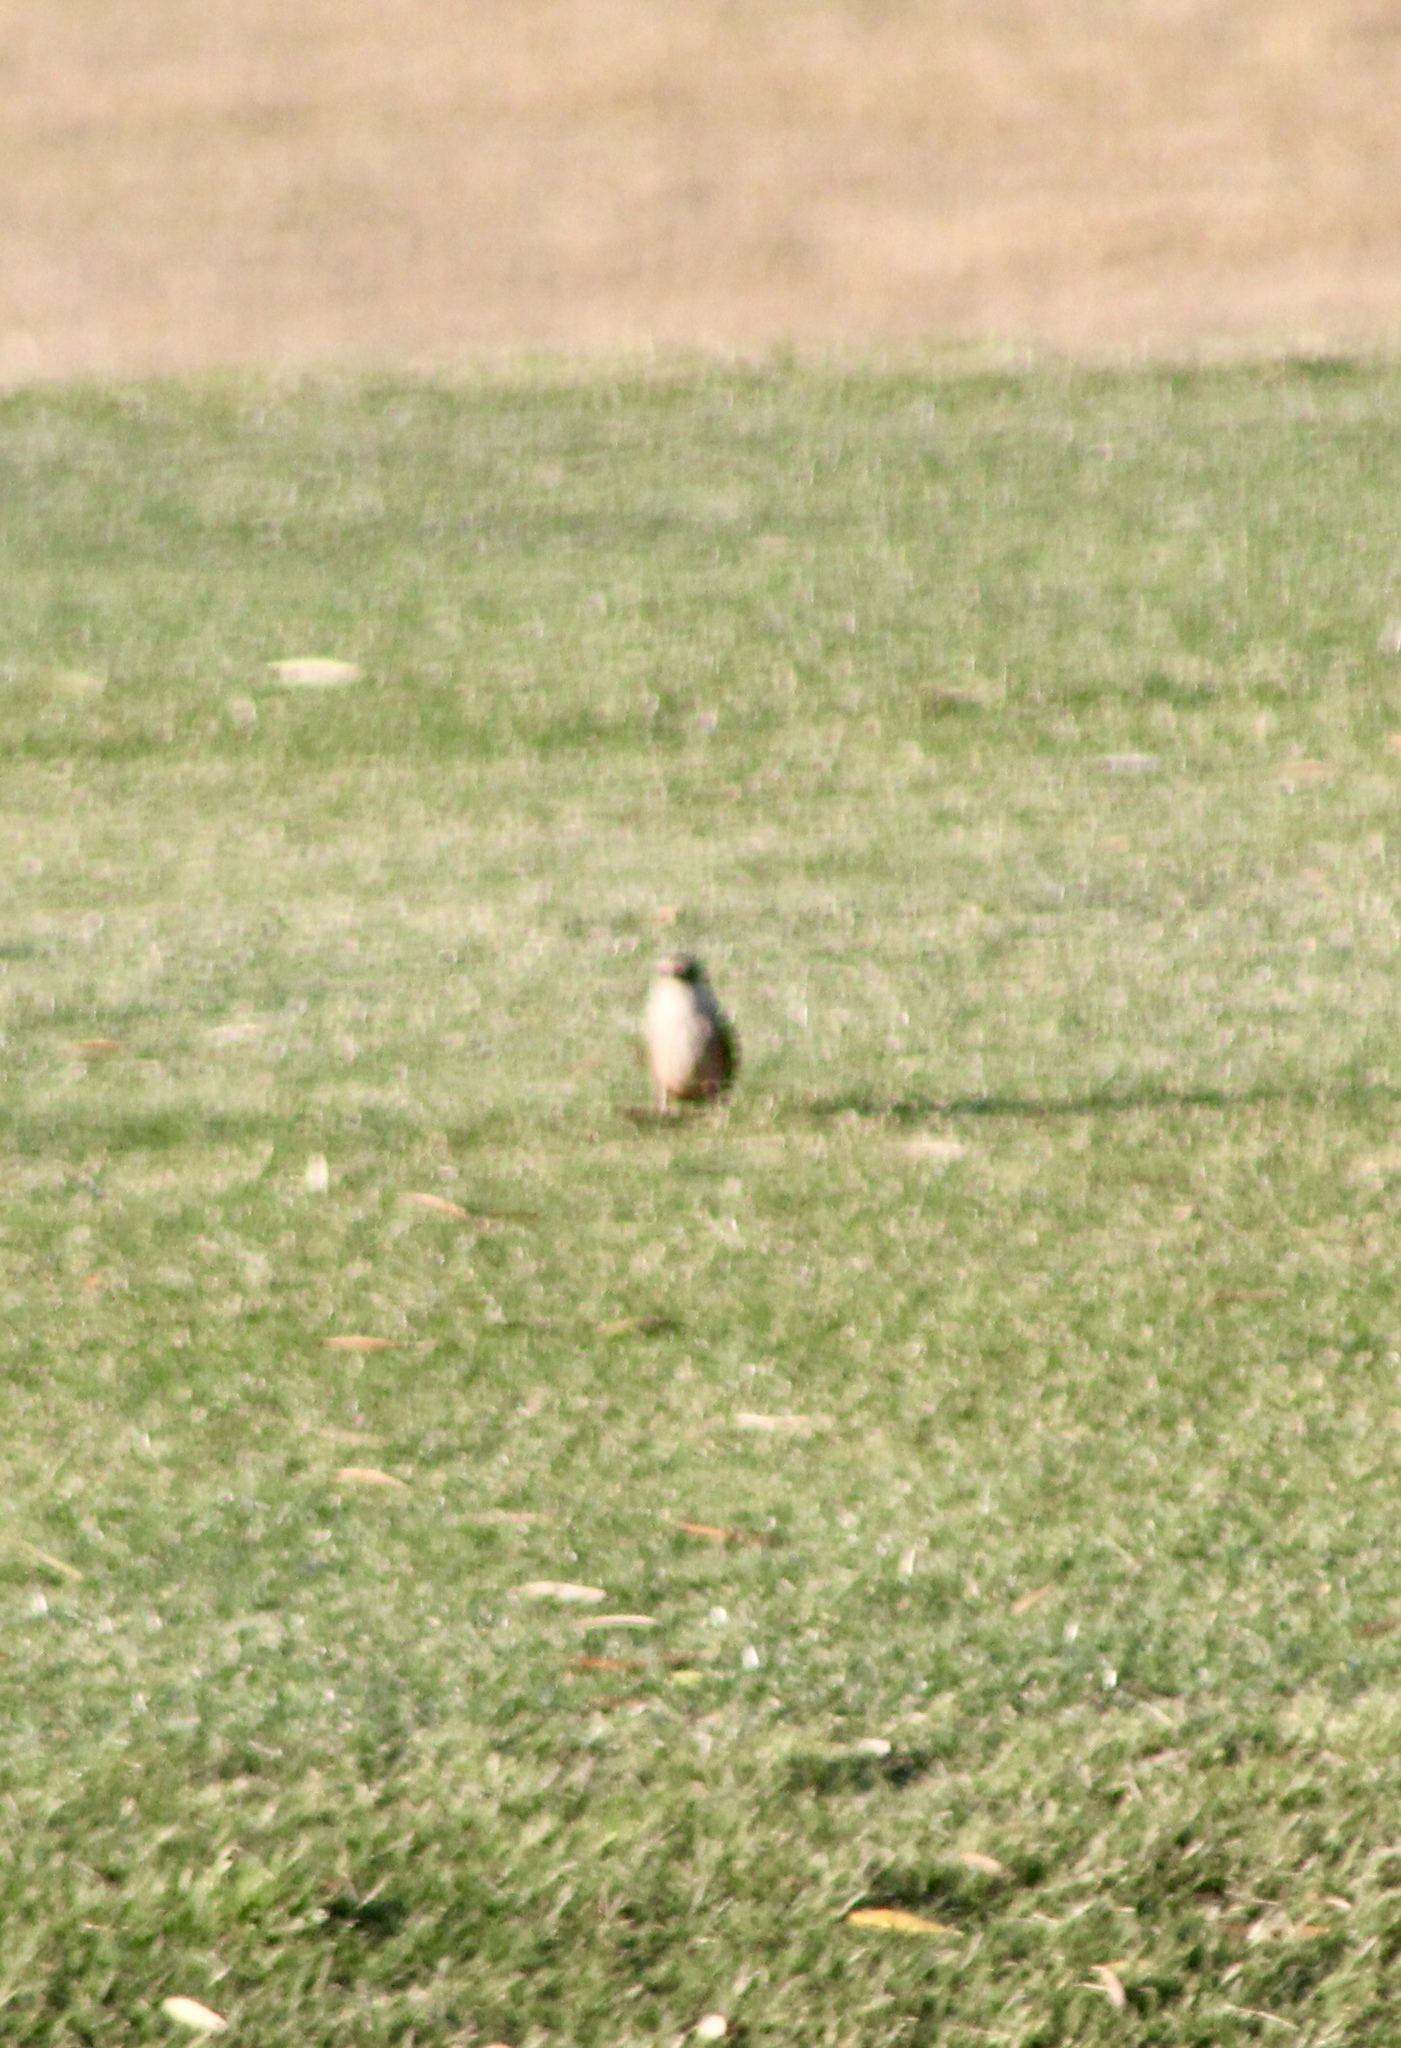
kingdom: Animalia
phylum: Chordata
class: Aves
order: Passeriformes
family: Tyrannidae
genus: Pyrocephalus
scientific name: Pyrocephalus rubinus
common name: Vermilion flycatcher
